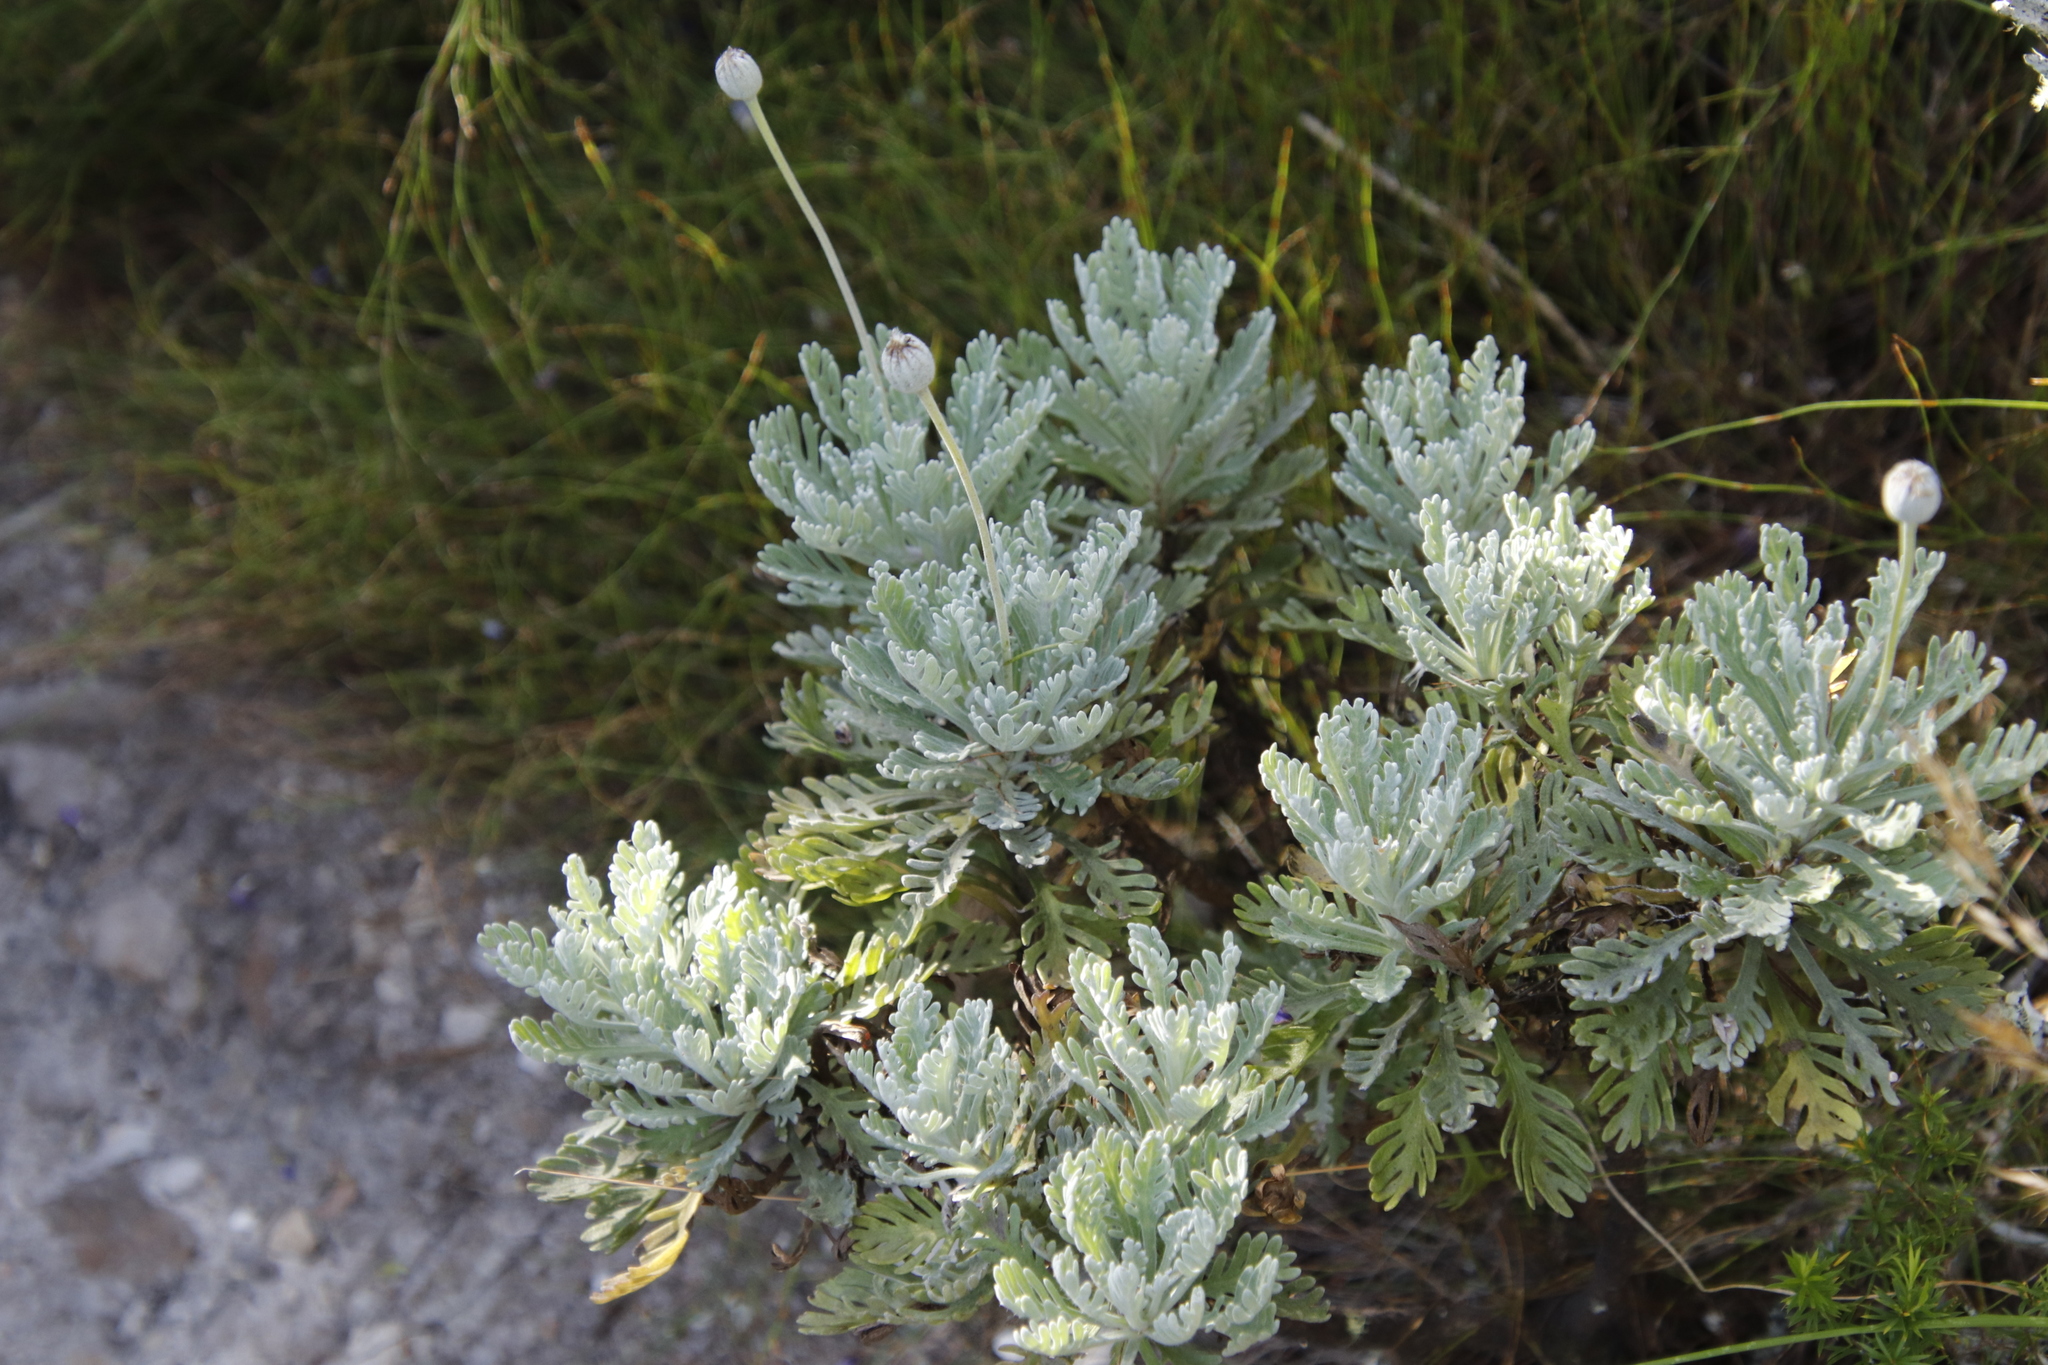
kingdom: Plantae
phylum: Tracheophyta
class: Magnoliopsida
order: Asterales
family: Asteraceae
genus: Euryops
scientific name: Euryops pectinatus
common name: Gray-leaf euryops
